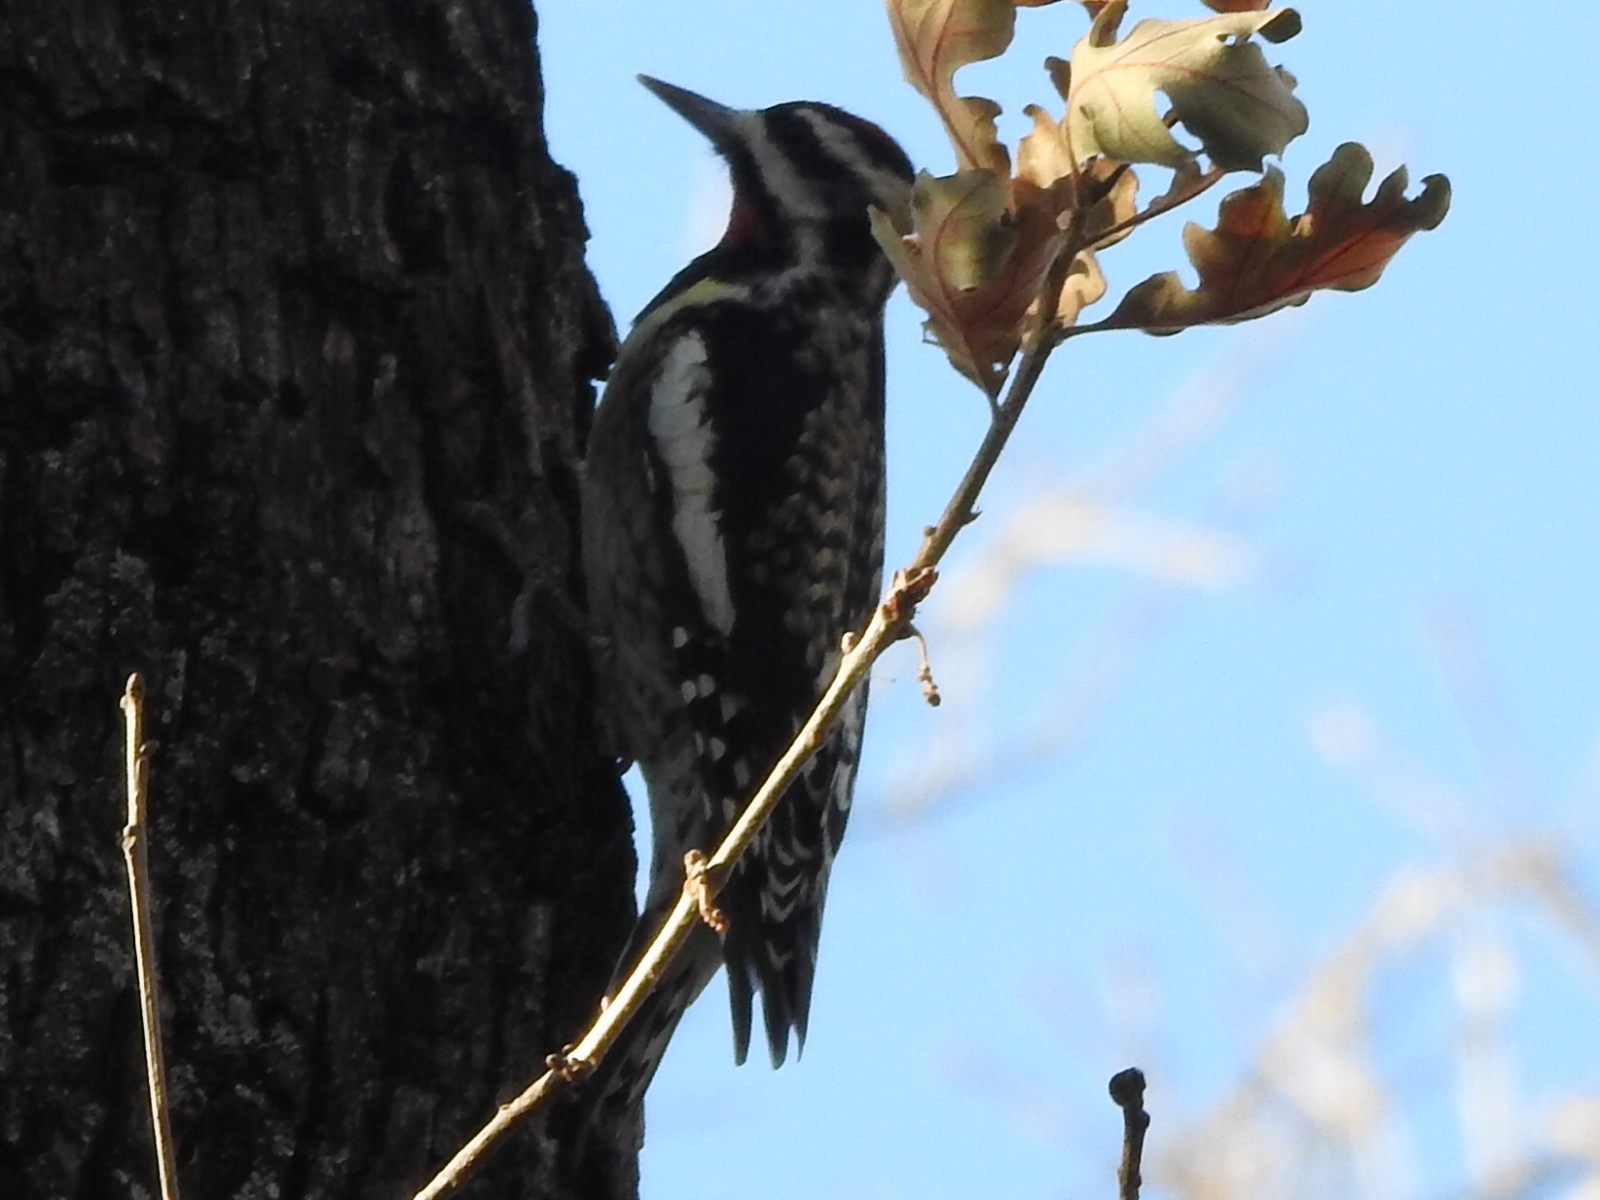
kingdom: Animalia
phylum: Chordata
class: Aves
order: Piciformes
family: Picidae
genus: Sphyrapicus
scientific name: Sphyrapicus varius
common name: Yellow-bellied sapsucker
